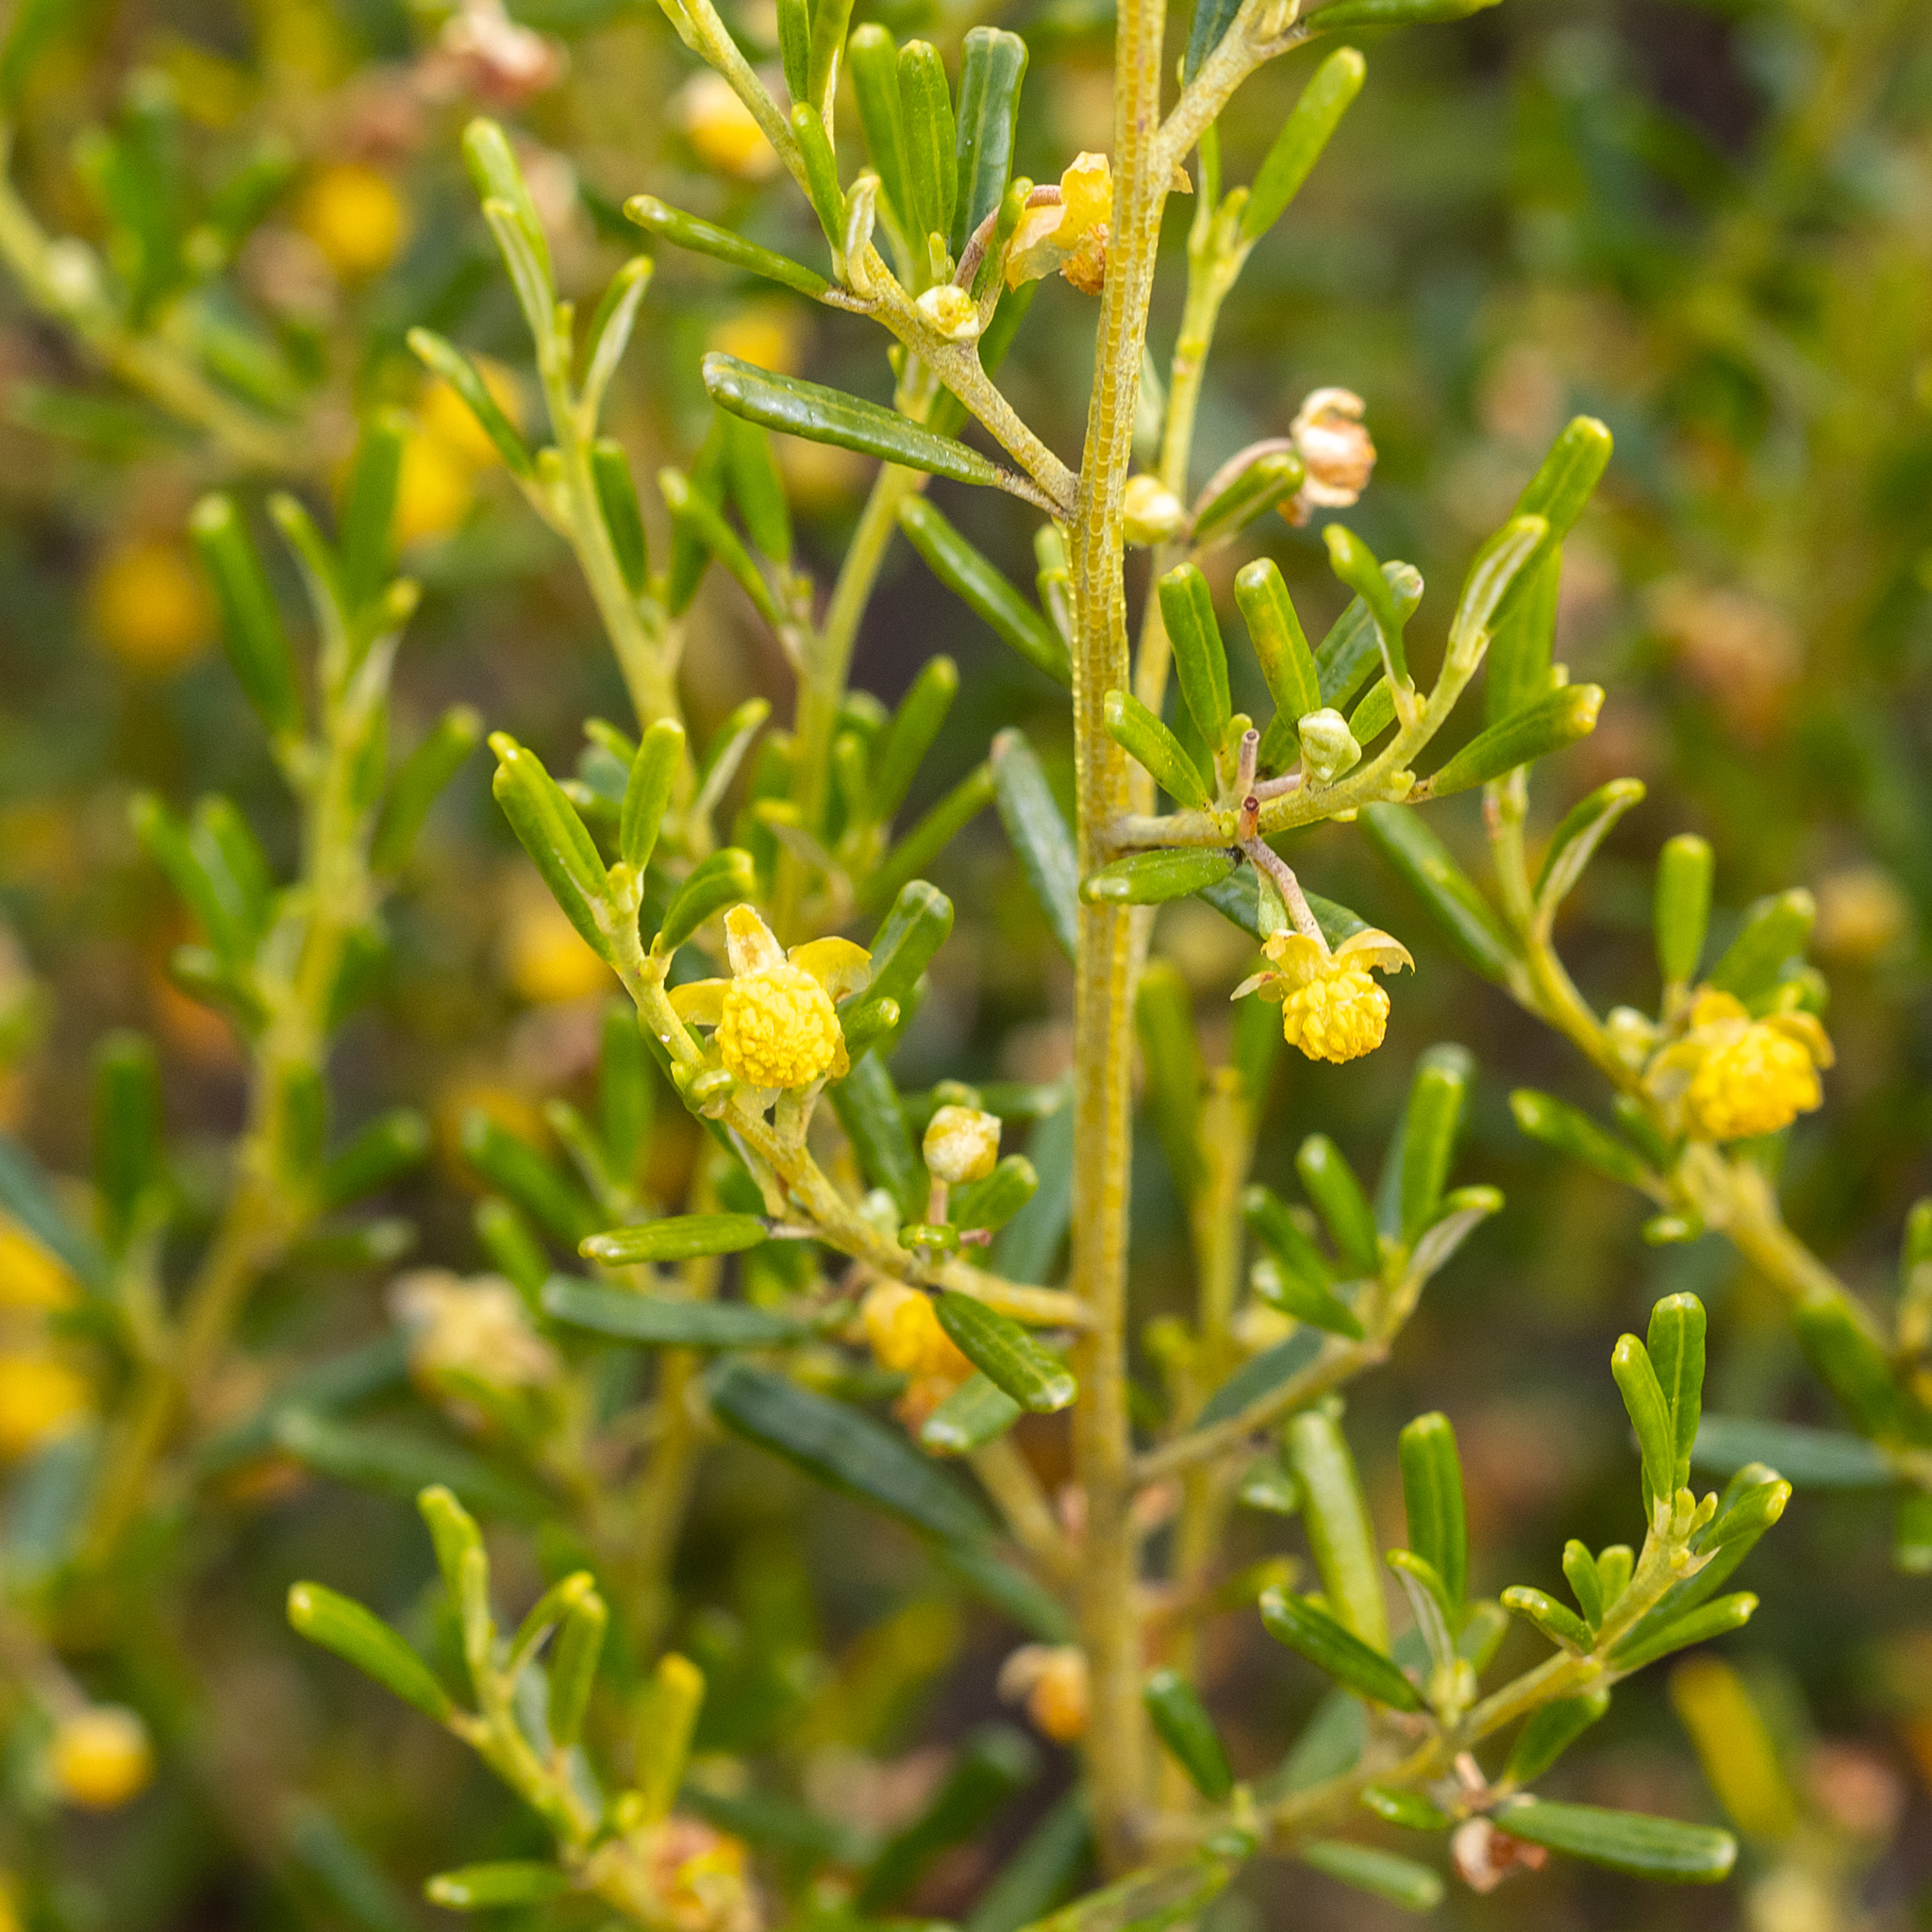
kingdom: Plantae
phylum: Tracheophyta
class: Magnoliopsida
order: Malpighiales
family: Euphorbiaceae
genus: Beyeria
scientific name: Beyeria lechenaultii
